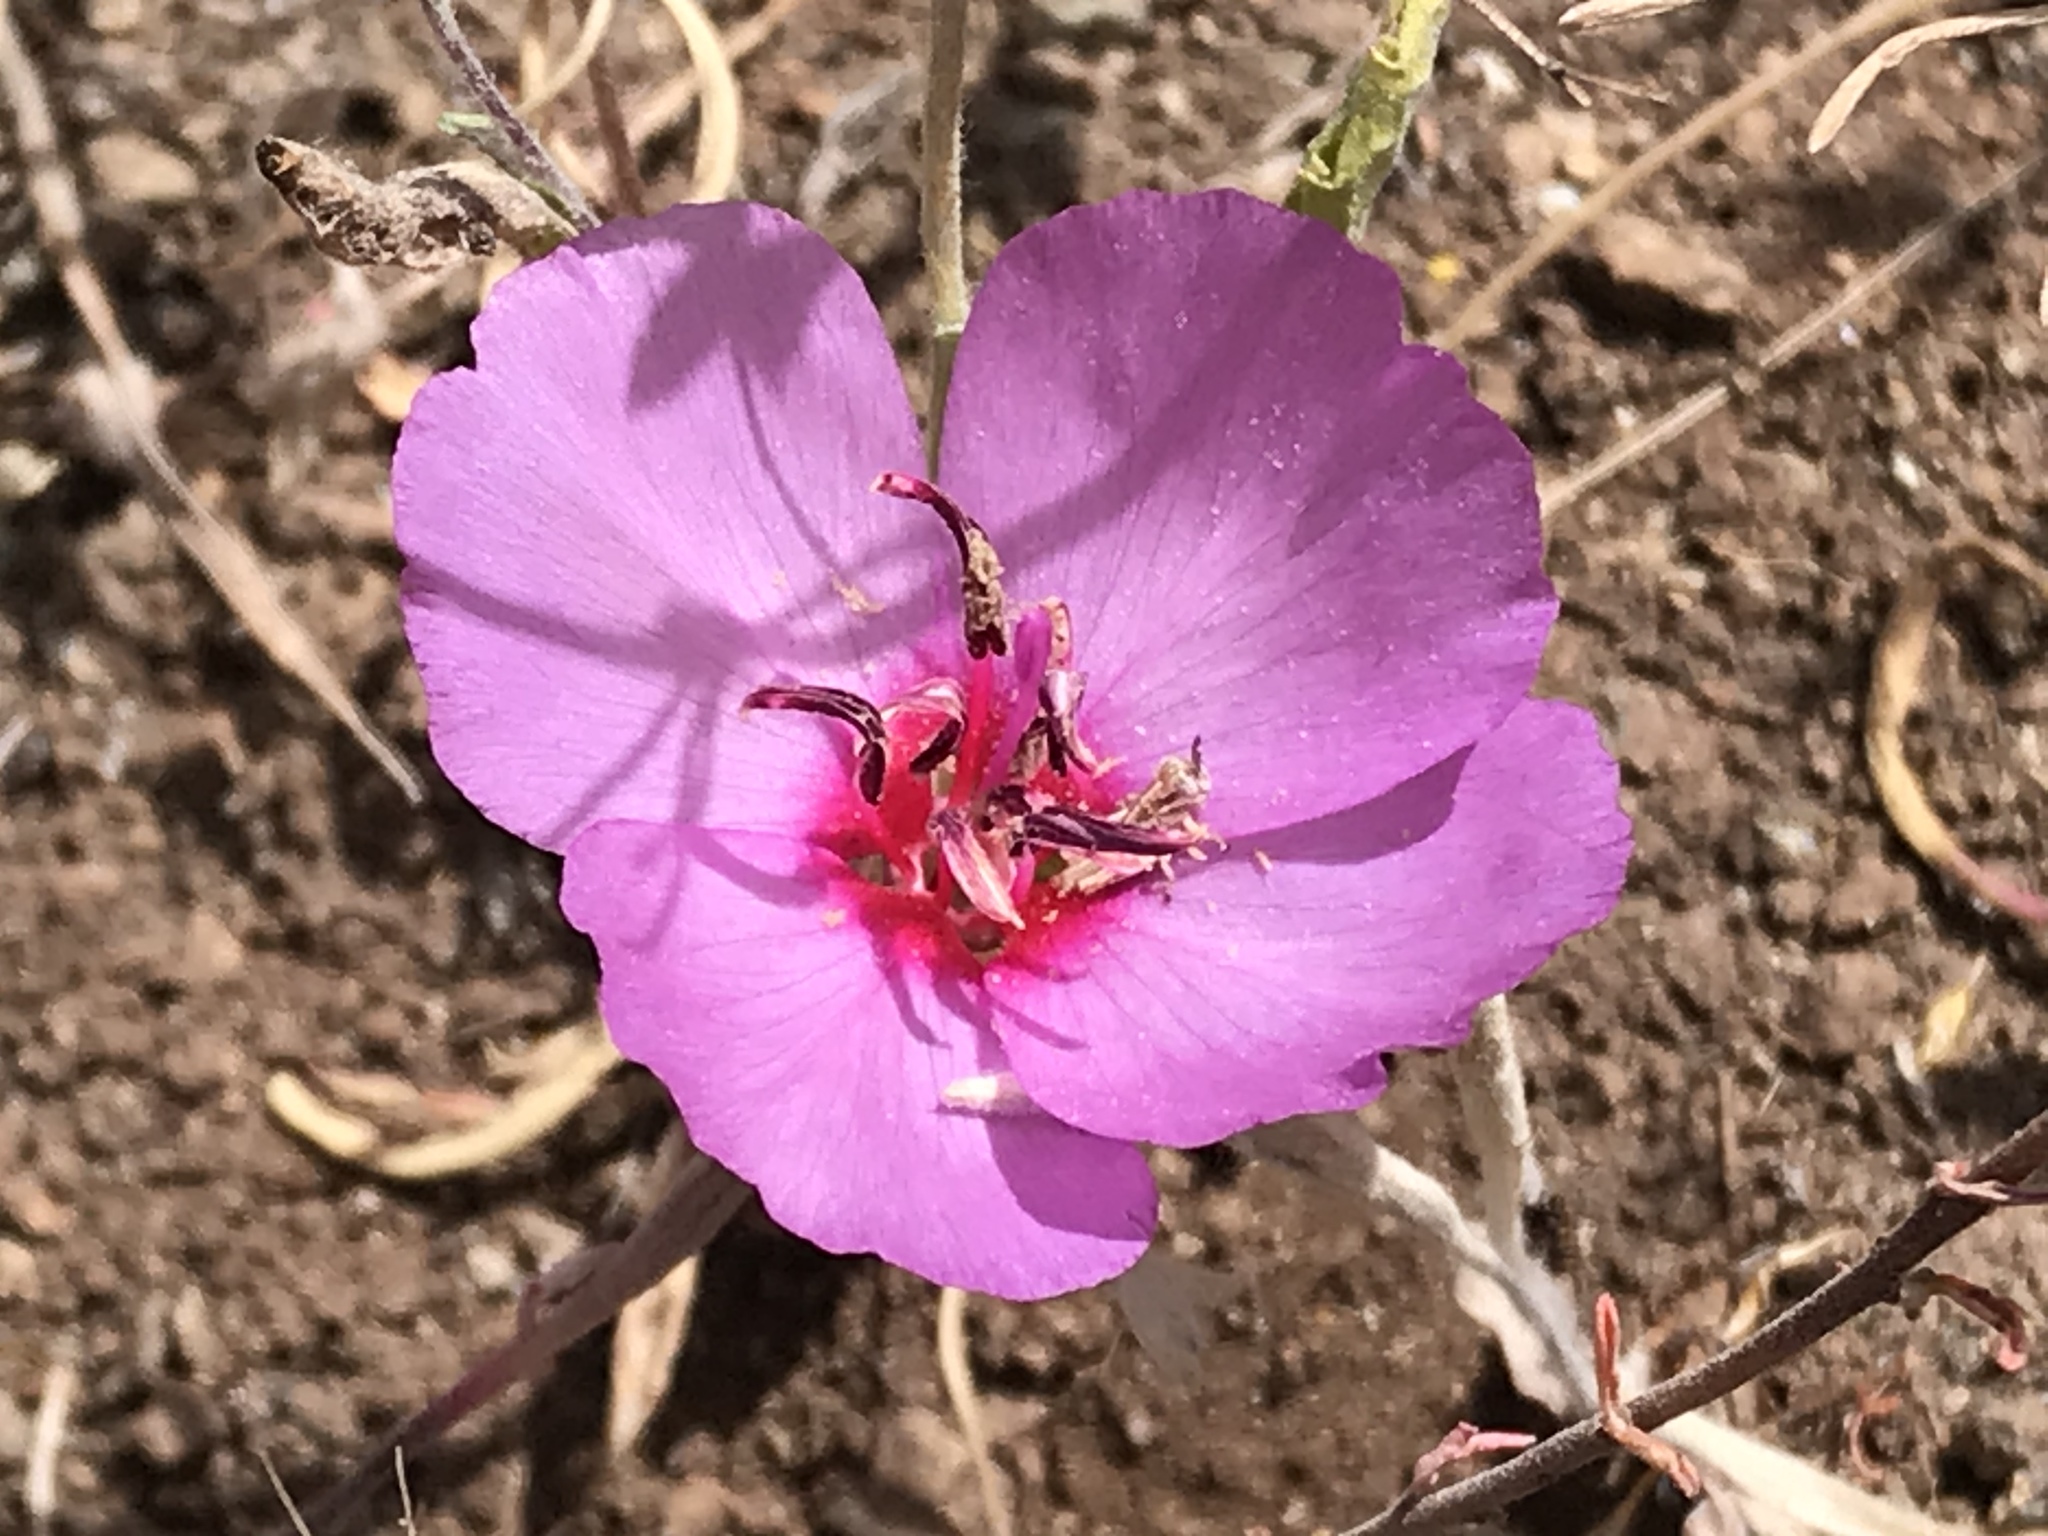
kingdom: Plantae
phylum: Tracheophyta
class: Magnoliopsida
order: Myrtales
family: Onagraceae
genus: Clarkia
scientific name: Clarkia rubicunda
